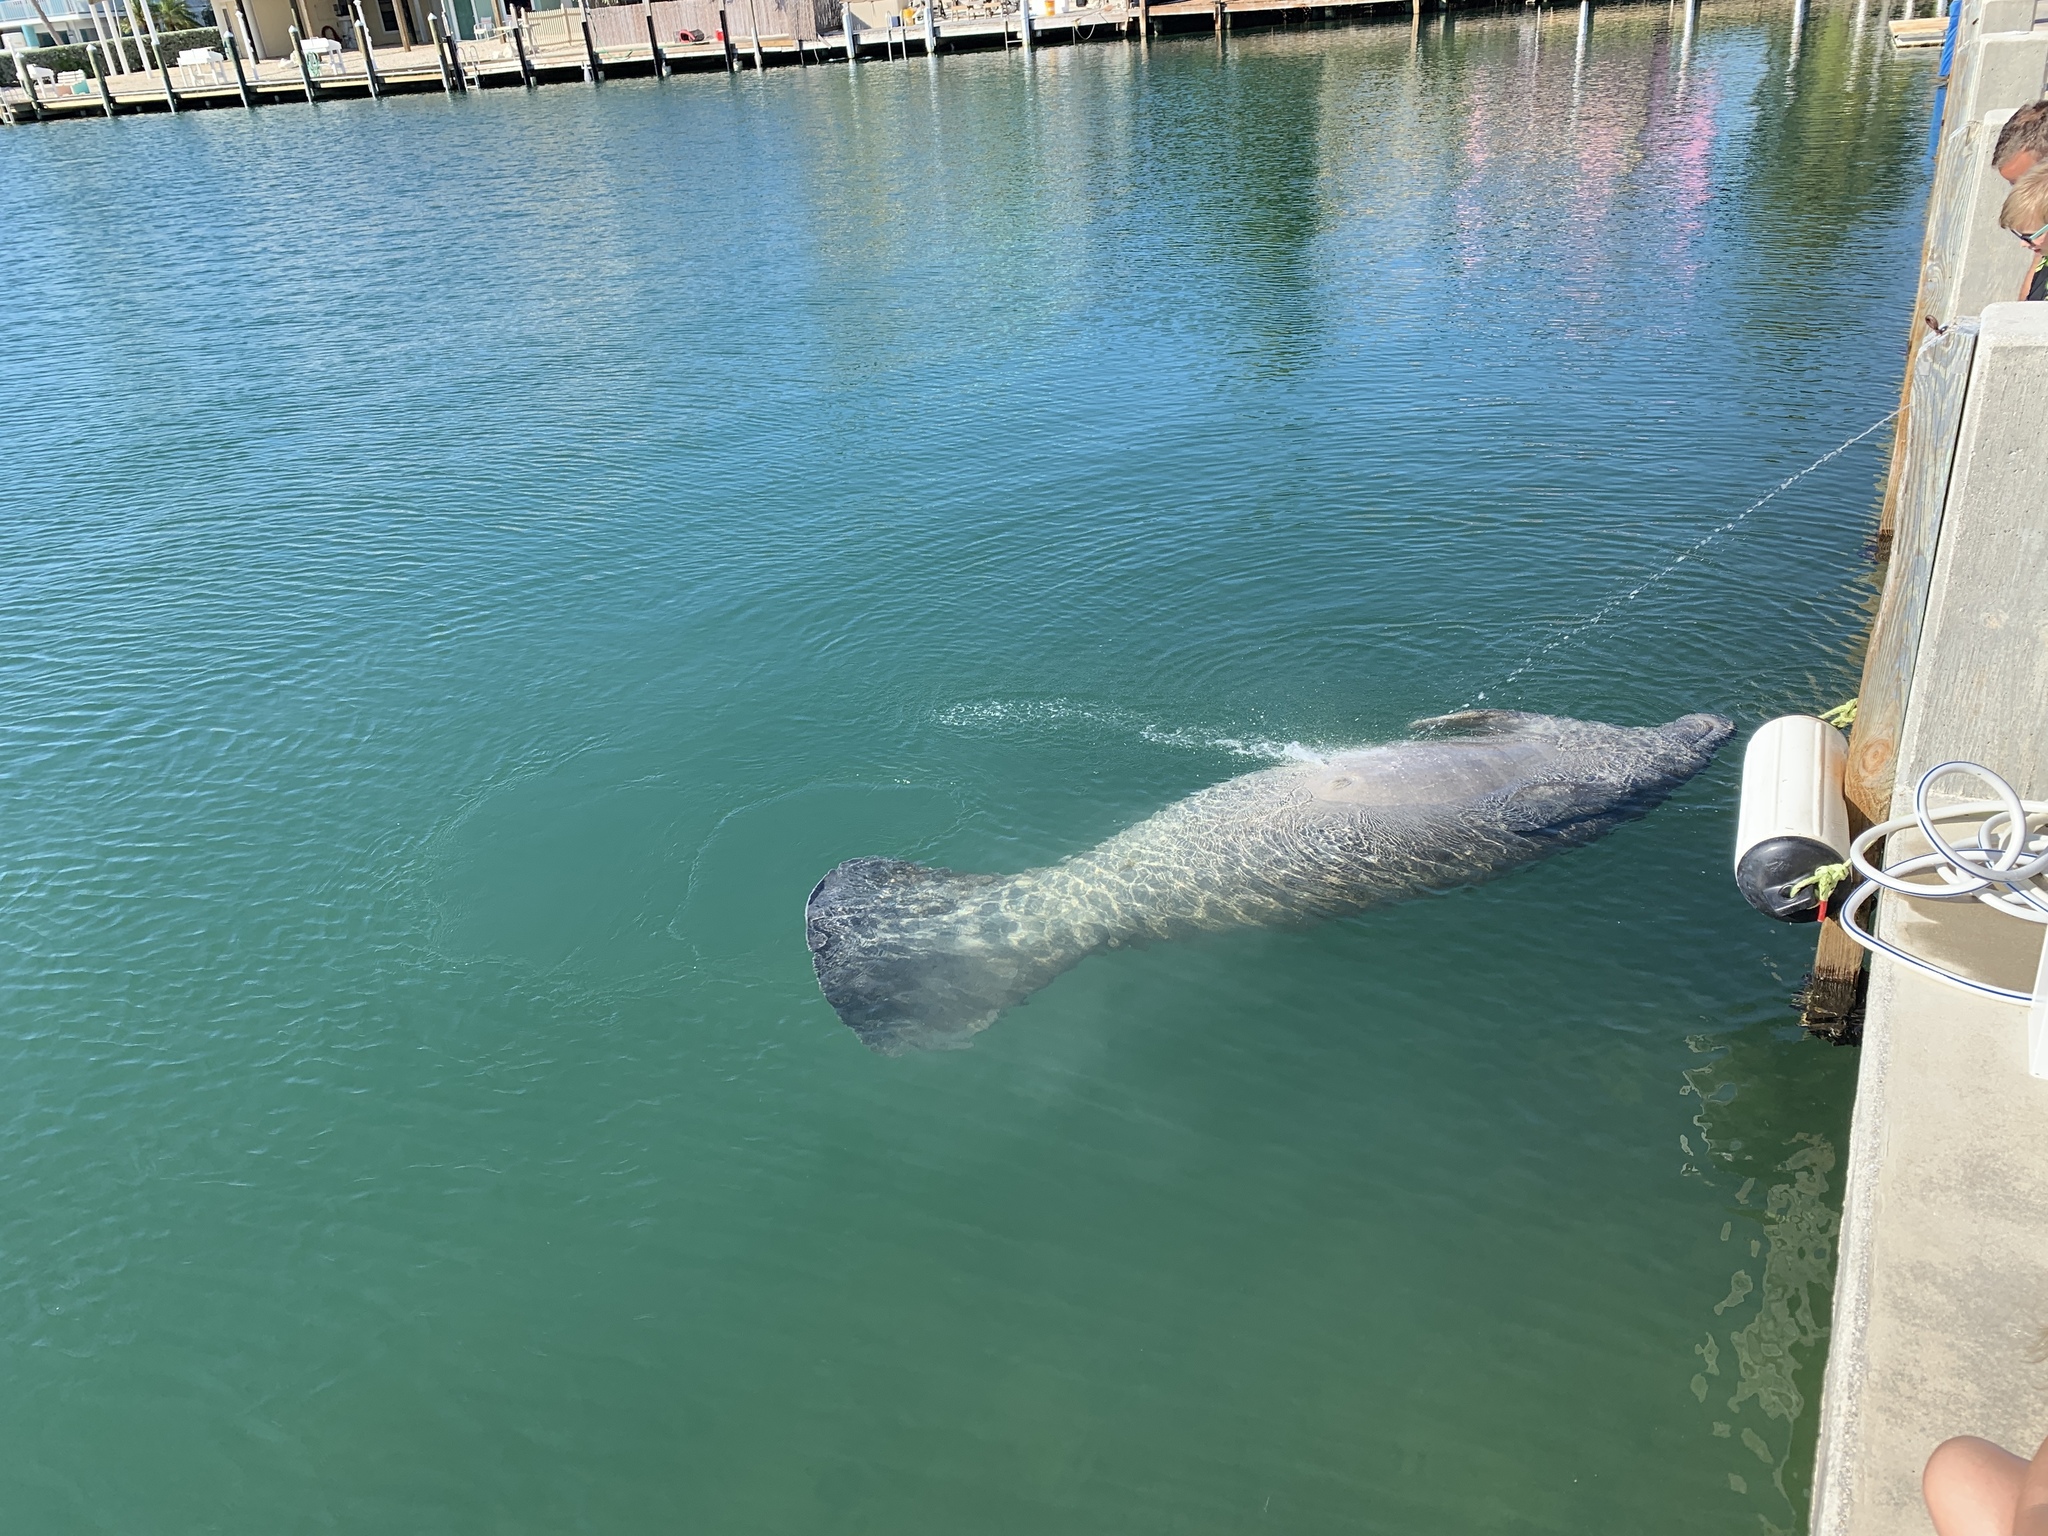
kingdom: Animalia
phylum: Chordata
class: Mammalia
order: Sirenia
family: Trichechidae
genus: Trichechus
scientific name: Trichechus manatus
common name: West indian manatee
